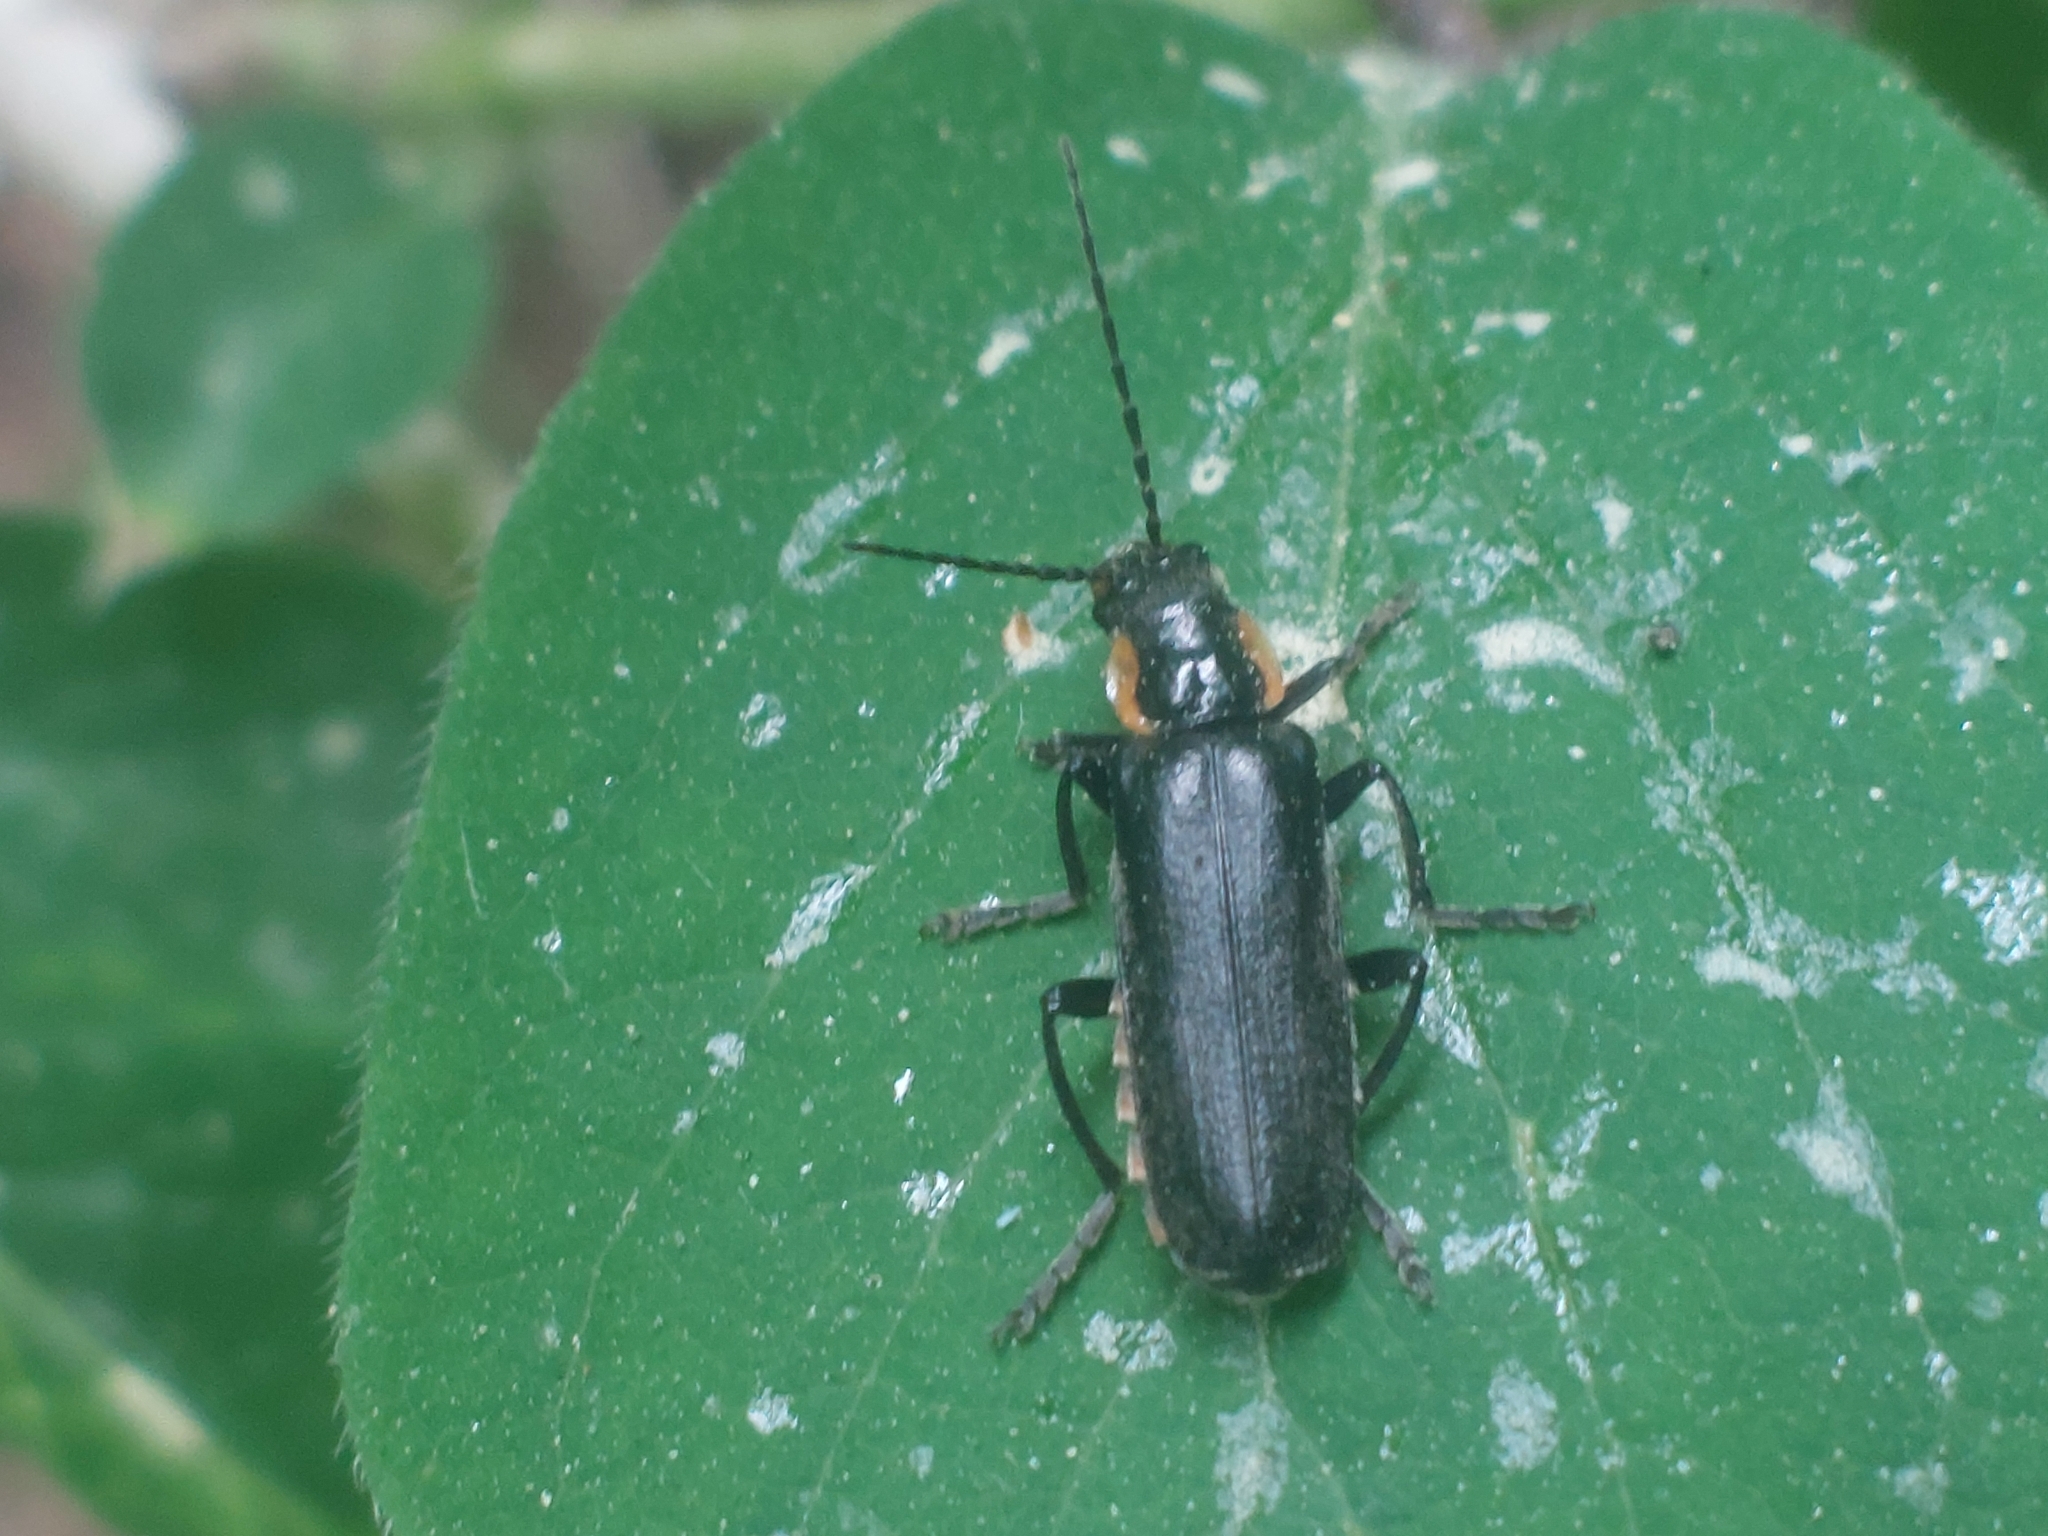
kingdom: Animalia
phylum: Arthropoda
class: Insecta
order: Coleoptera
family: Cantharidae
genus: Cantharis
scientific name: Cantharis obscura
